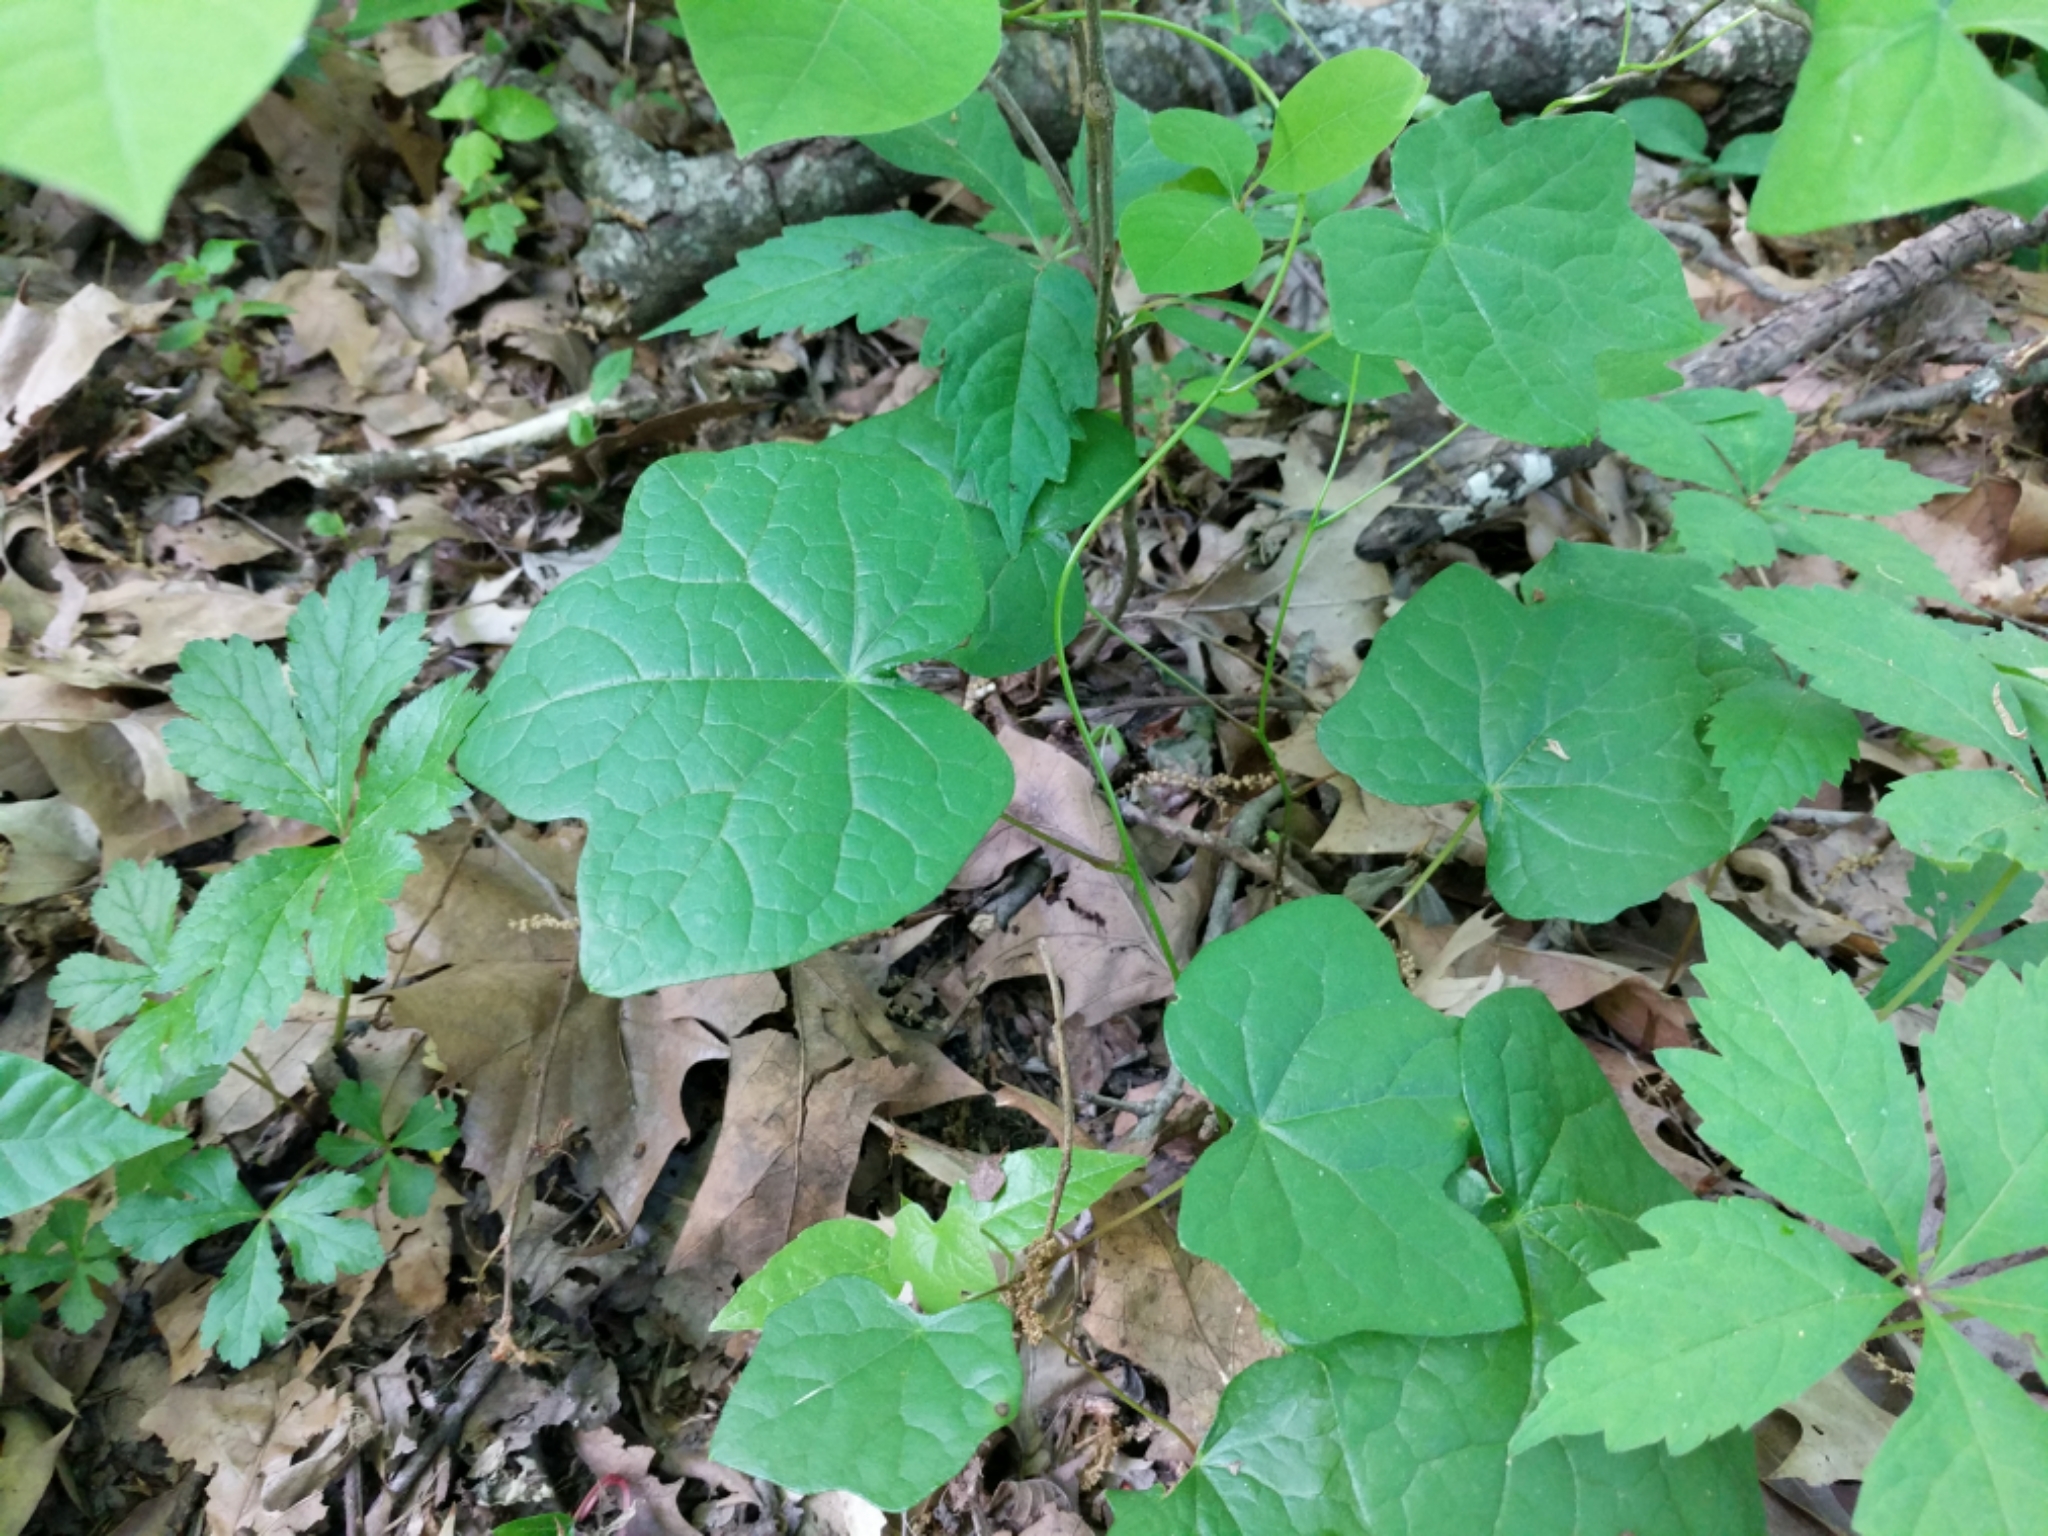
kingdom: Plantae
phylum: Tracheophyta
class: Magnoliopsida
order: Ranunculales
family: Menispermaceae
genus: Menispermum
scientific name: Menispermum canadense
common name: Moonseed
